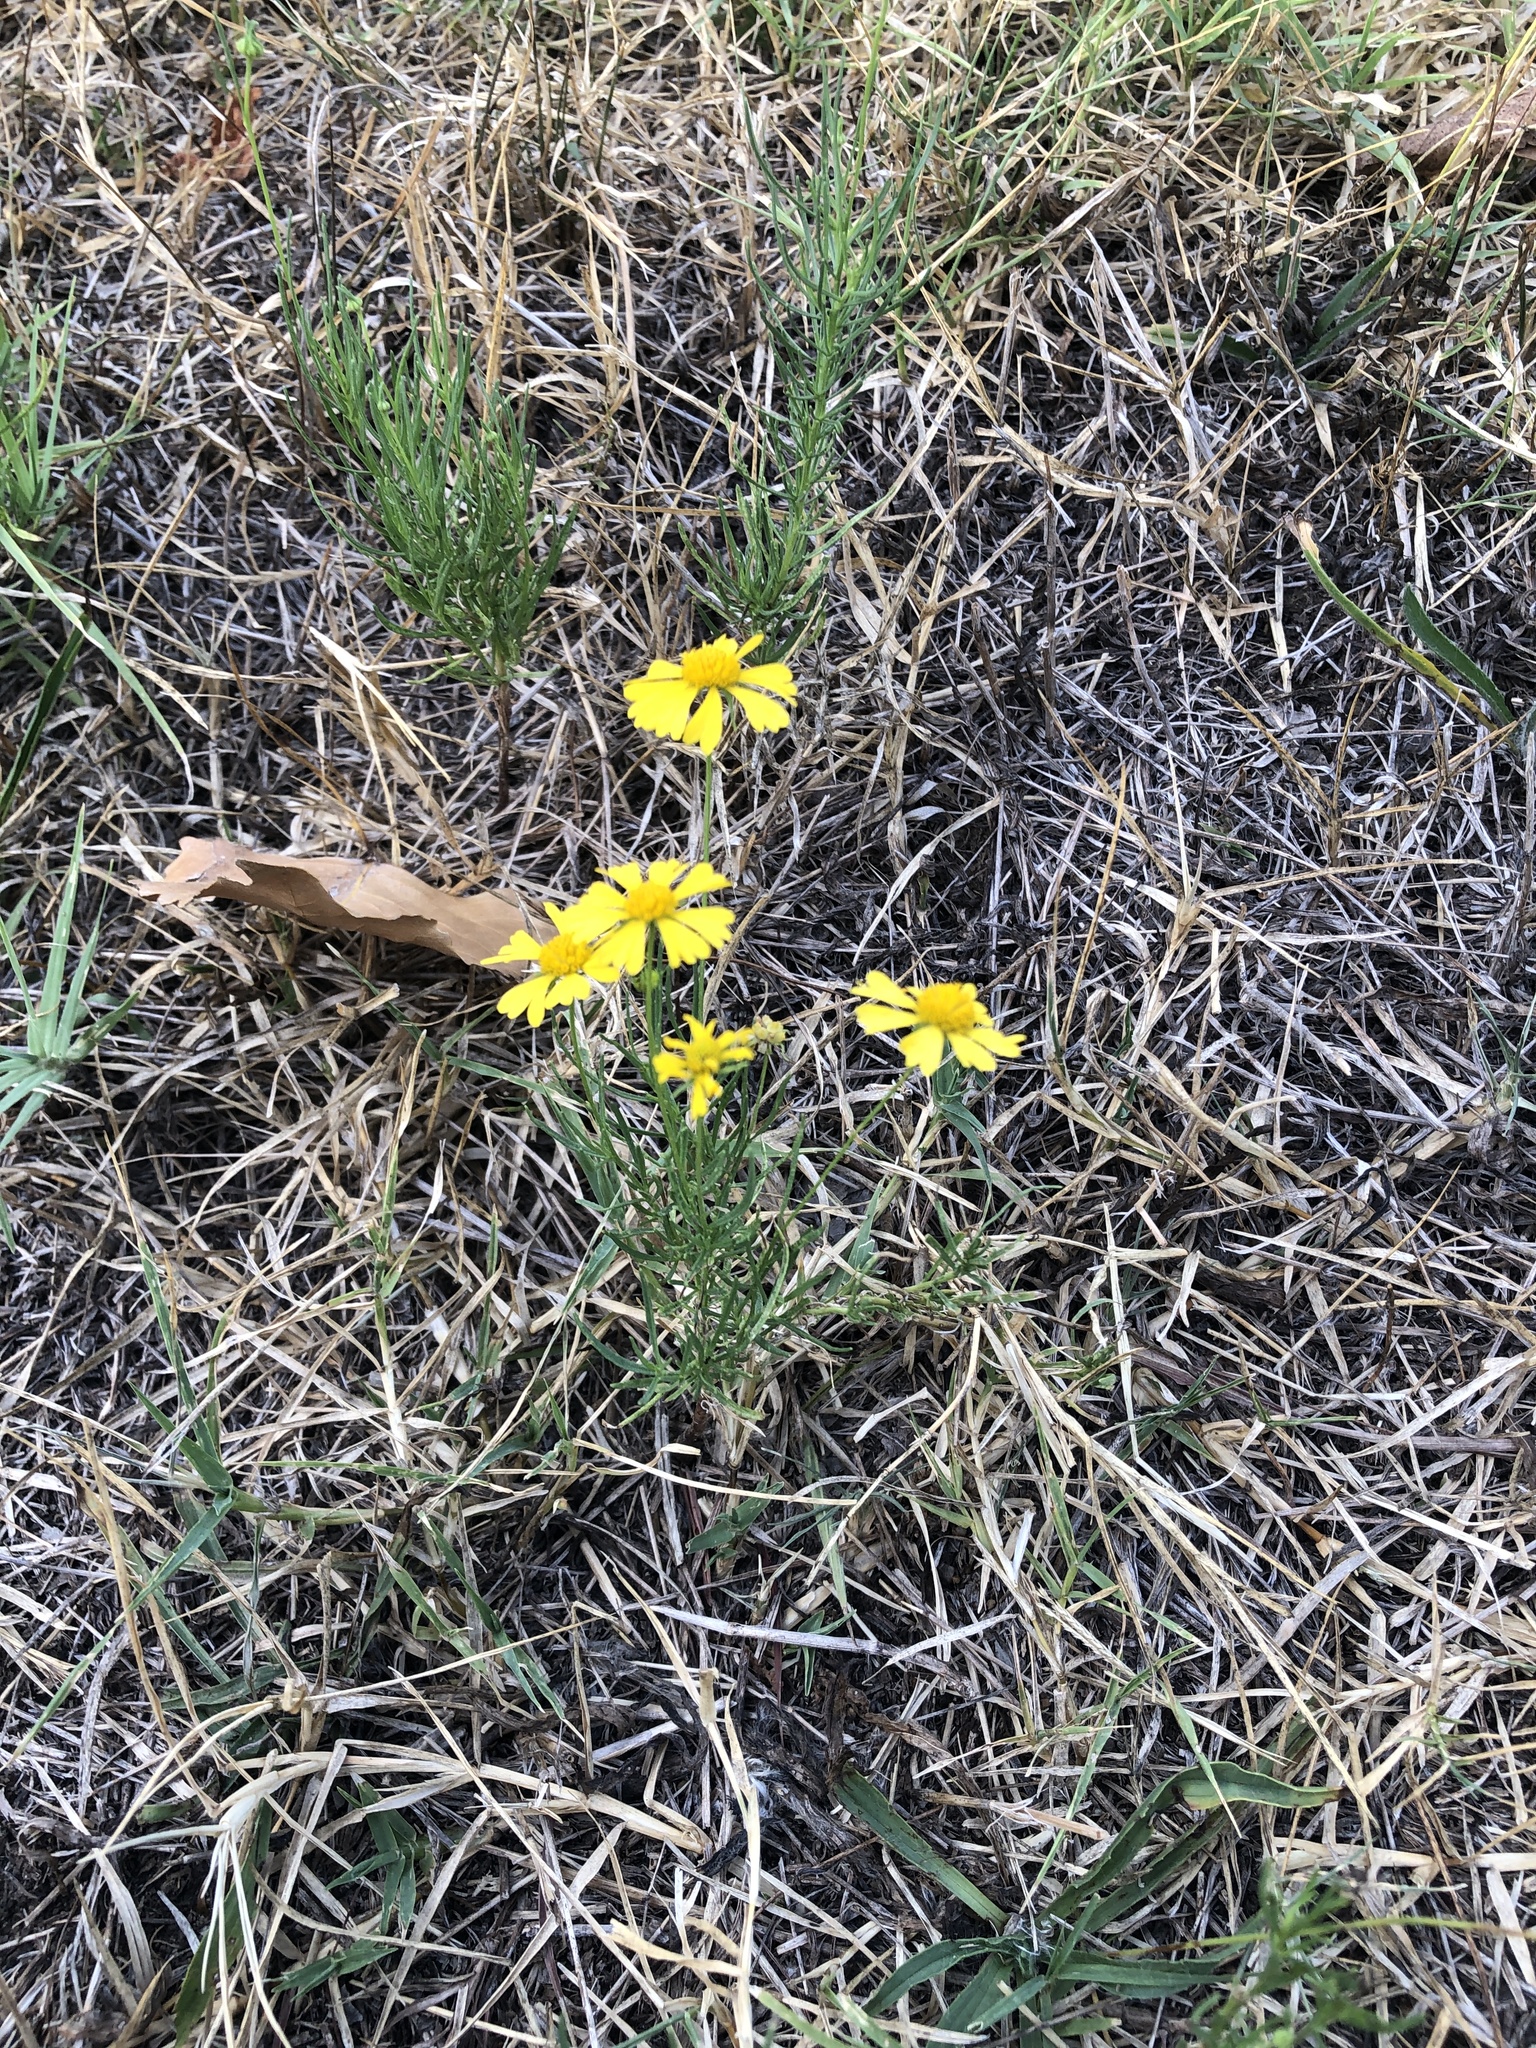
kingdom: Plantae
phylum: Tracheophyta
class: Magnoliopsida
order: Asterales
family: Asteraceae
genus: Helenium
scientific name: Helenium amarum
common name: Bitter sneezeweed
